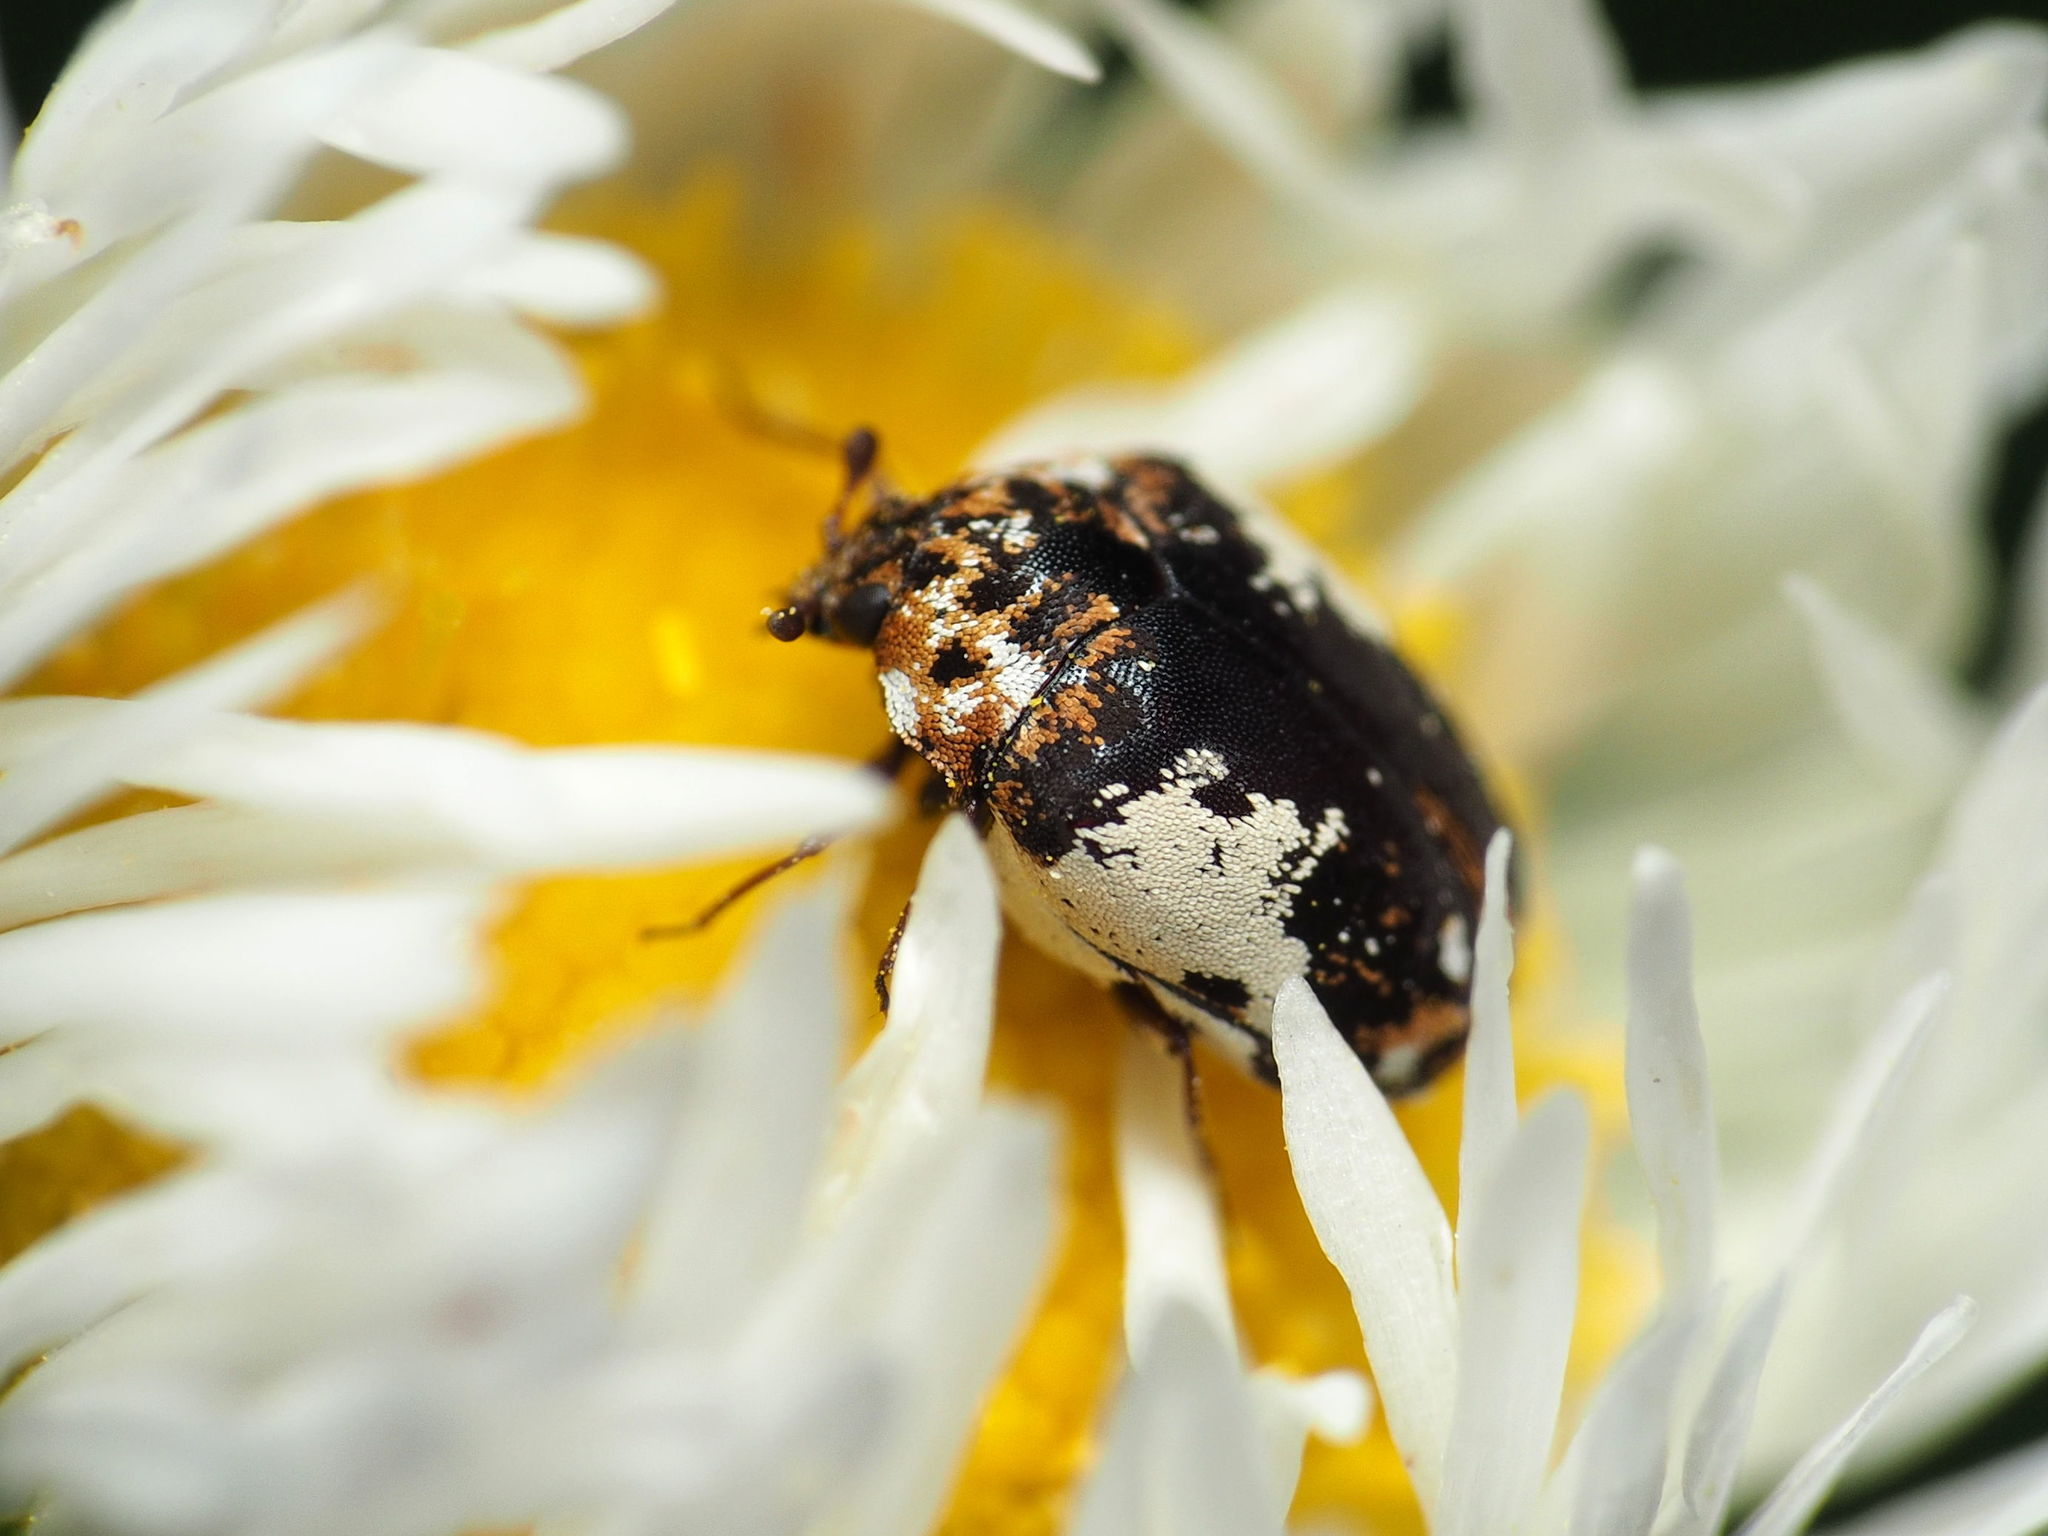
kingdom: Animalia
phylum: Arthropoda
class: Insecta
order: Coleoptera
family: Dermestidae
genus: Anthrenus
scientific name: Anthrenus isabellinus
